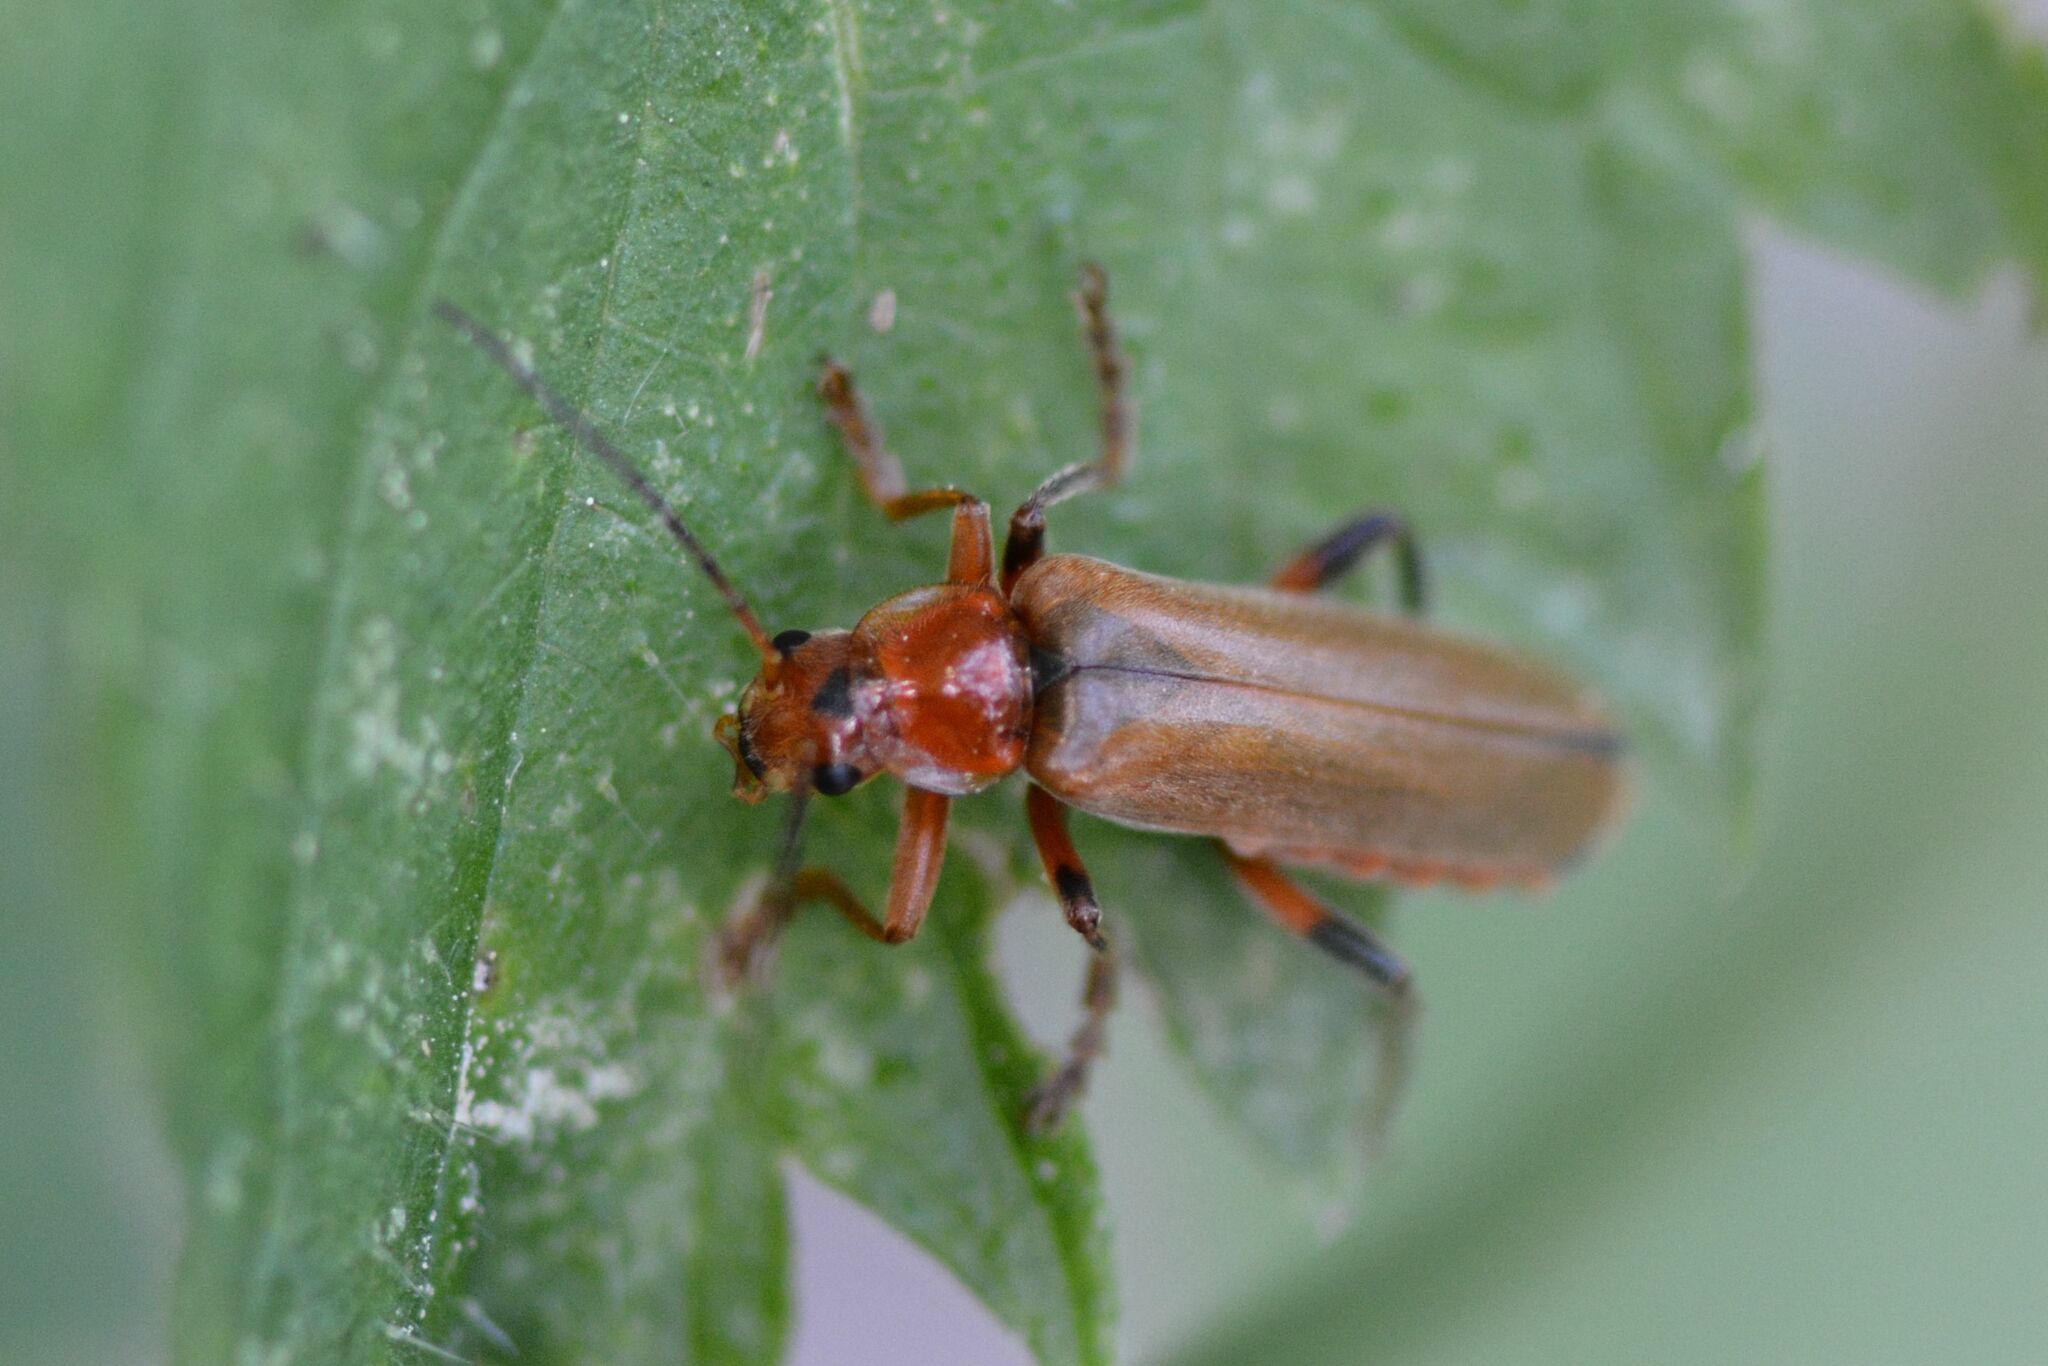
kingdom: Animalia
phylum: Arthropoda
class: Insecta
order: Coleoptera
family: Cantharidae
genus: Cantharis
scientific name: Cantharis livida
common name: Livid soldier beetle
